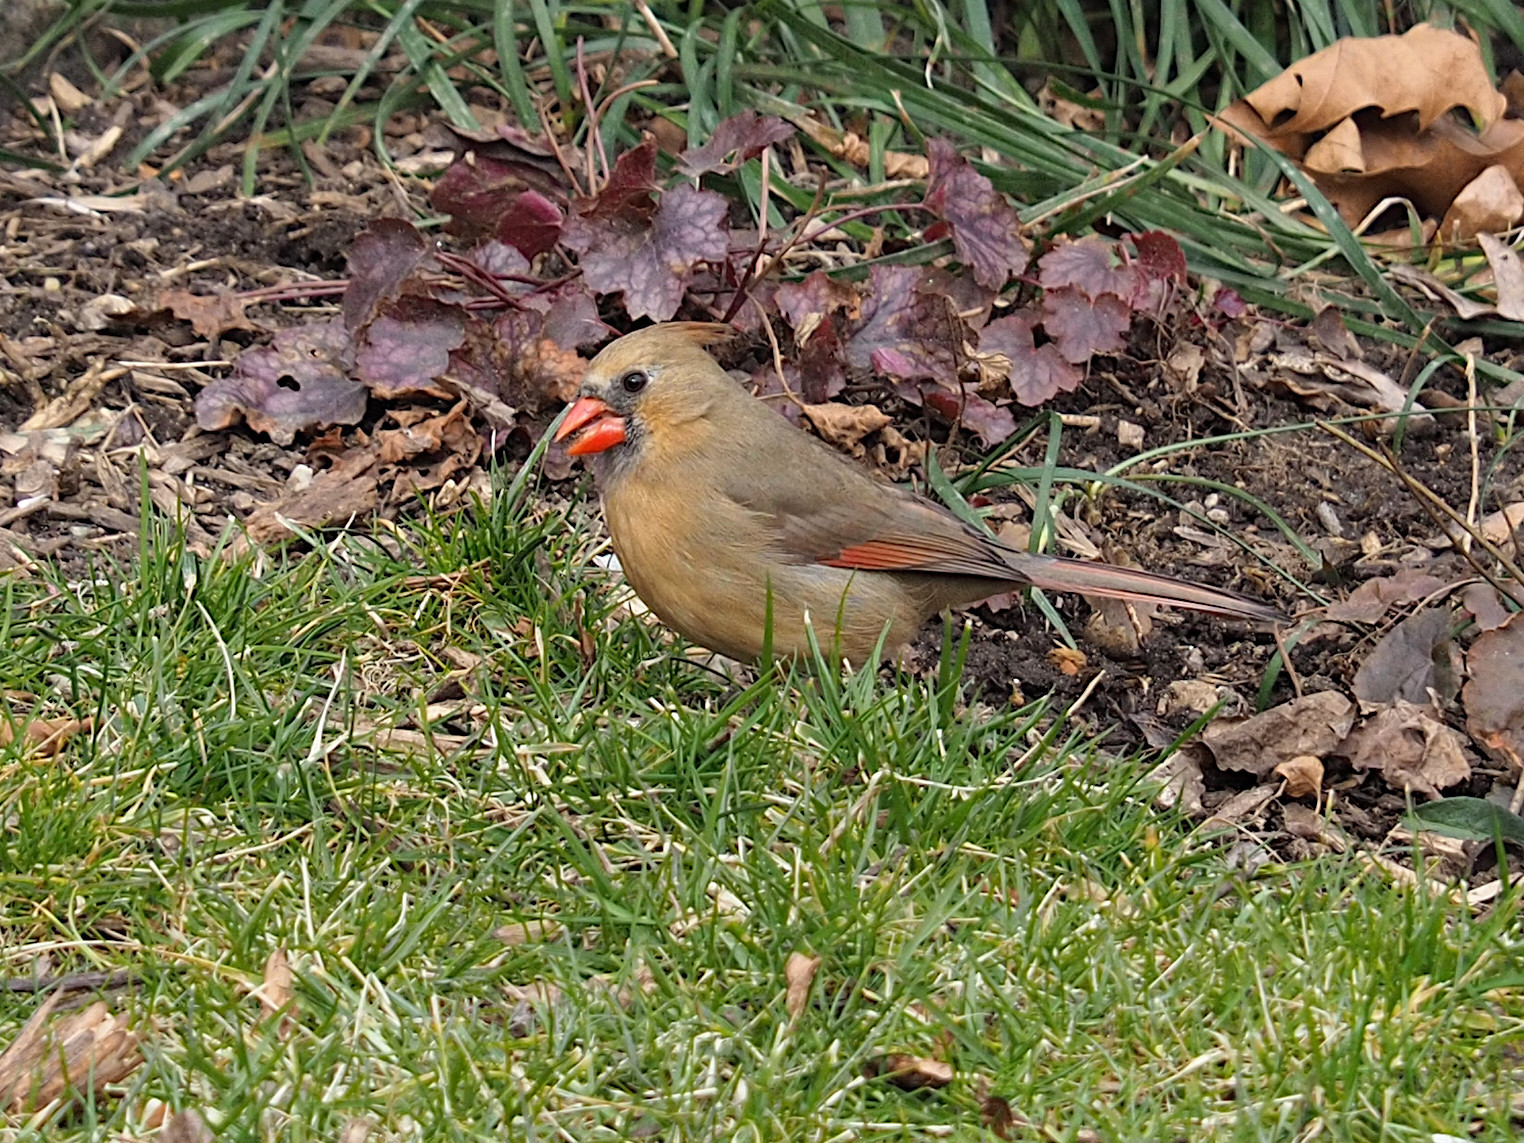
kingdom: Animalia
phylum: Chordata
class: Aves
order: Passeriformes
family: Cardinalidae
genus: Cardinalis
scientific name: Cardinalis cardinalis
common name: Northern cardinal
